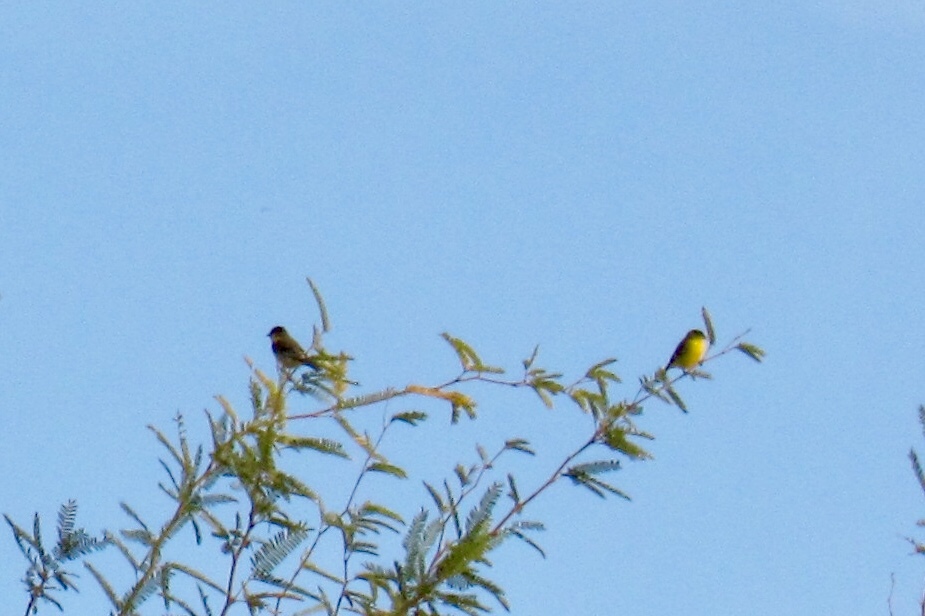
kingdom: Animalia
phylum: Chordata
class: Aves
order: Passeriformes
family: Fringillidae
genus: Spinus
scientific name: Spinus psaltria
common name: Lesser goldfinch
